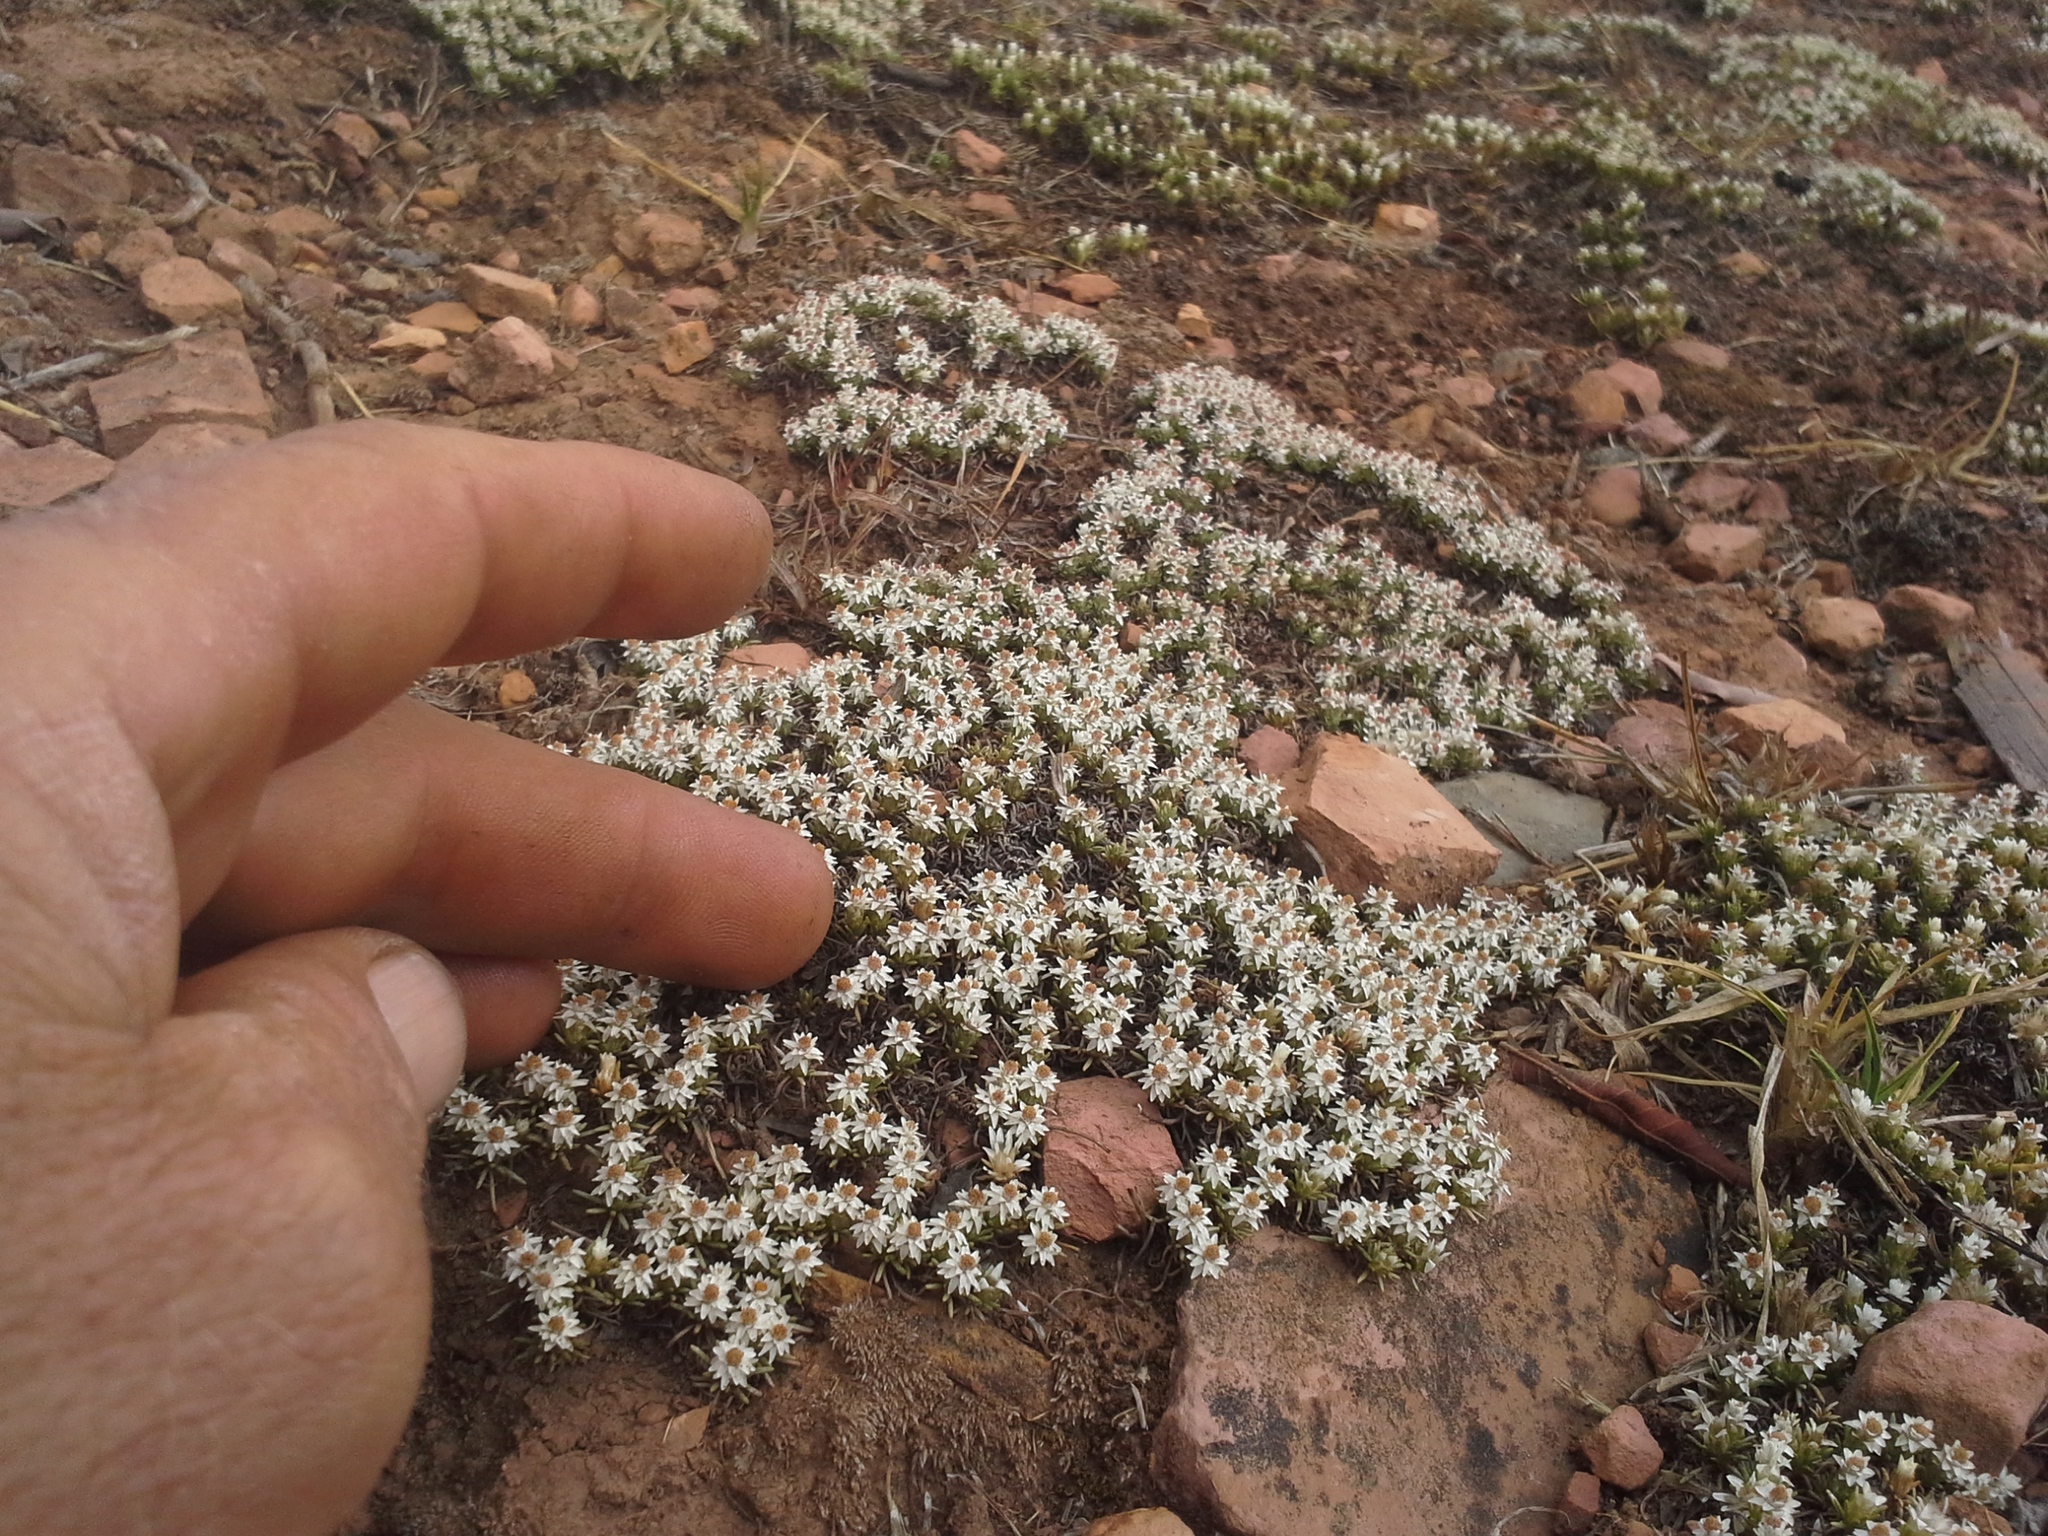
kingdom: Plantae
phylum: Tracheophyta
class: Magnoliopsida
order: Asterales
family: Asteraceae
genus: Helichrysum
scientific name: Helichrysum caespititium
